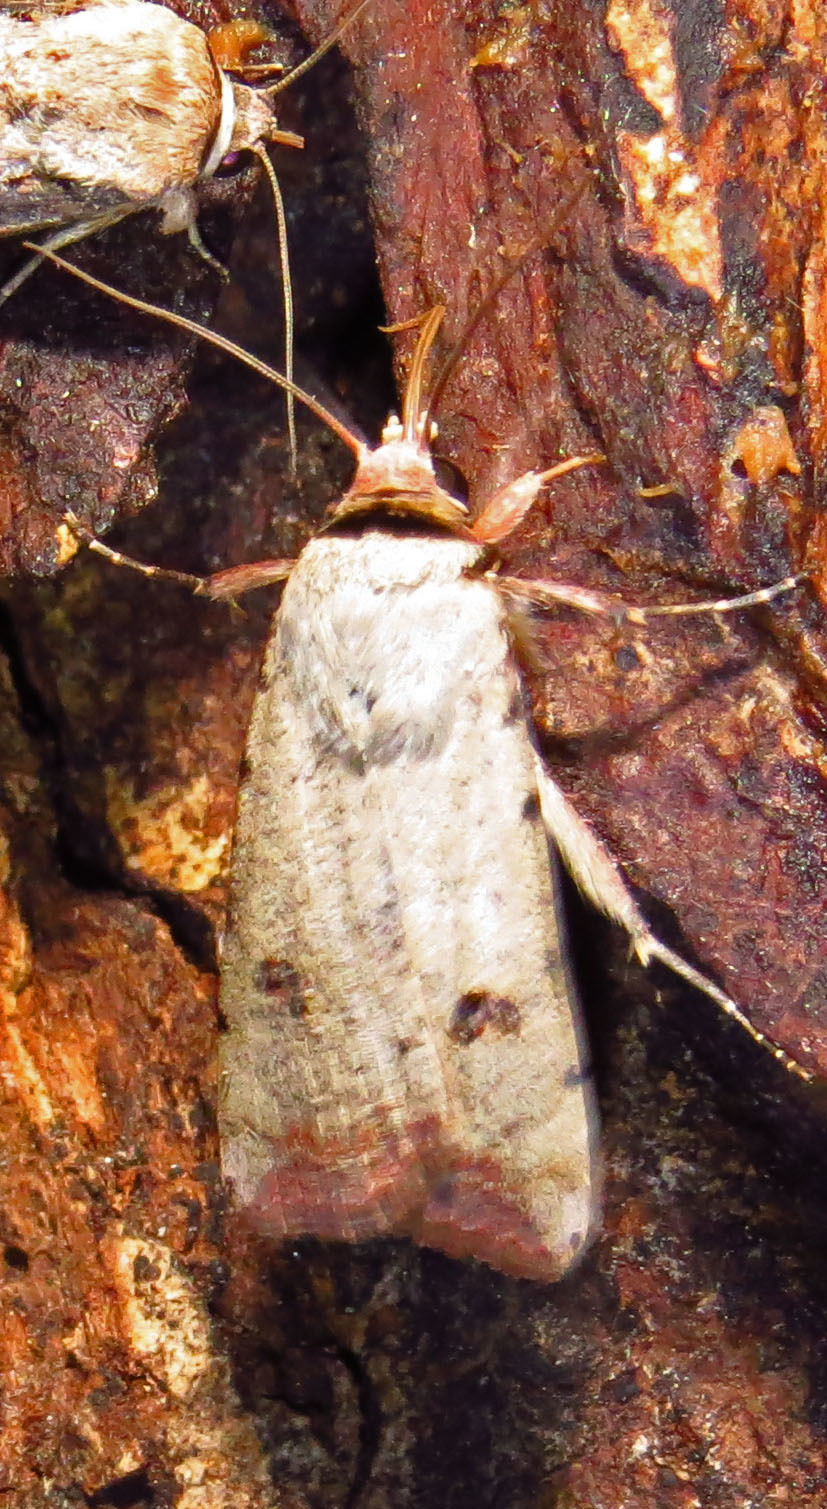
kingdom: Animalia
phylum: Arthropoda
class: Insecta
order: Lepidoptera
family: Noctuidae
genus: Anicla
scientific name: Anicla infecta
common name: Green cutworm
